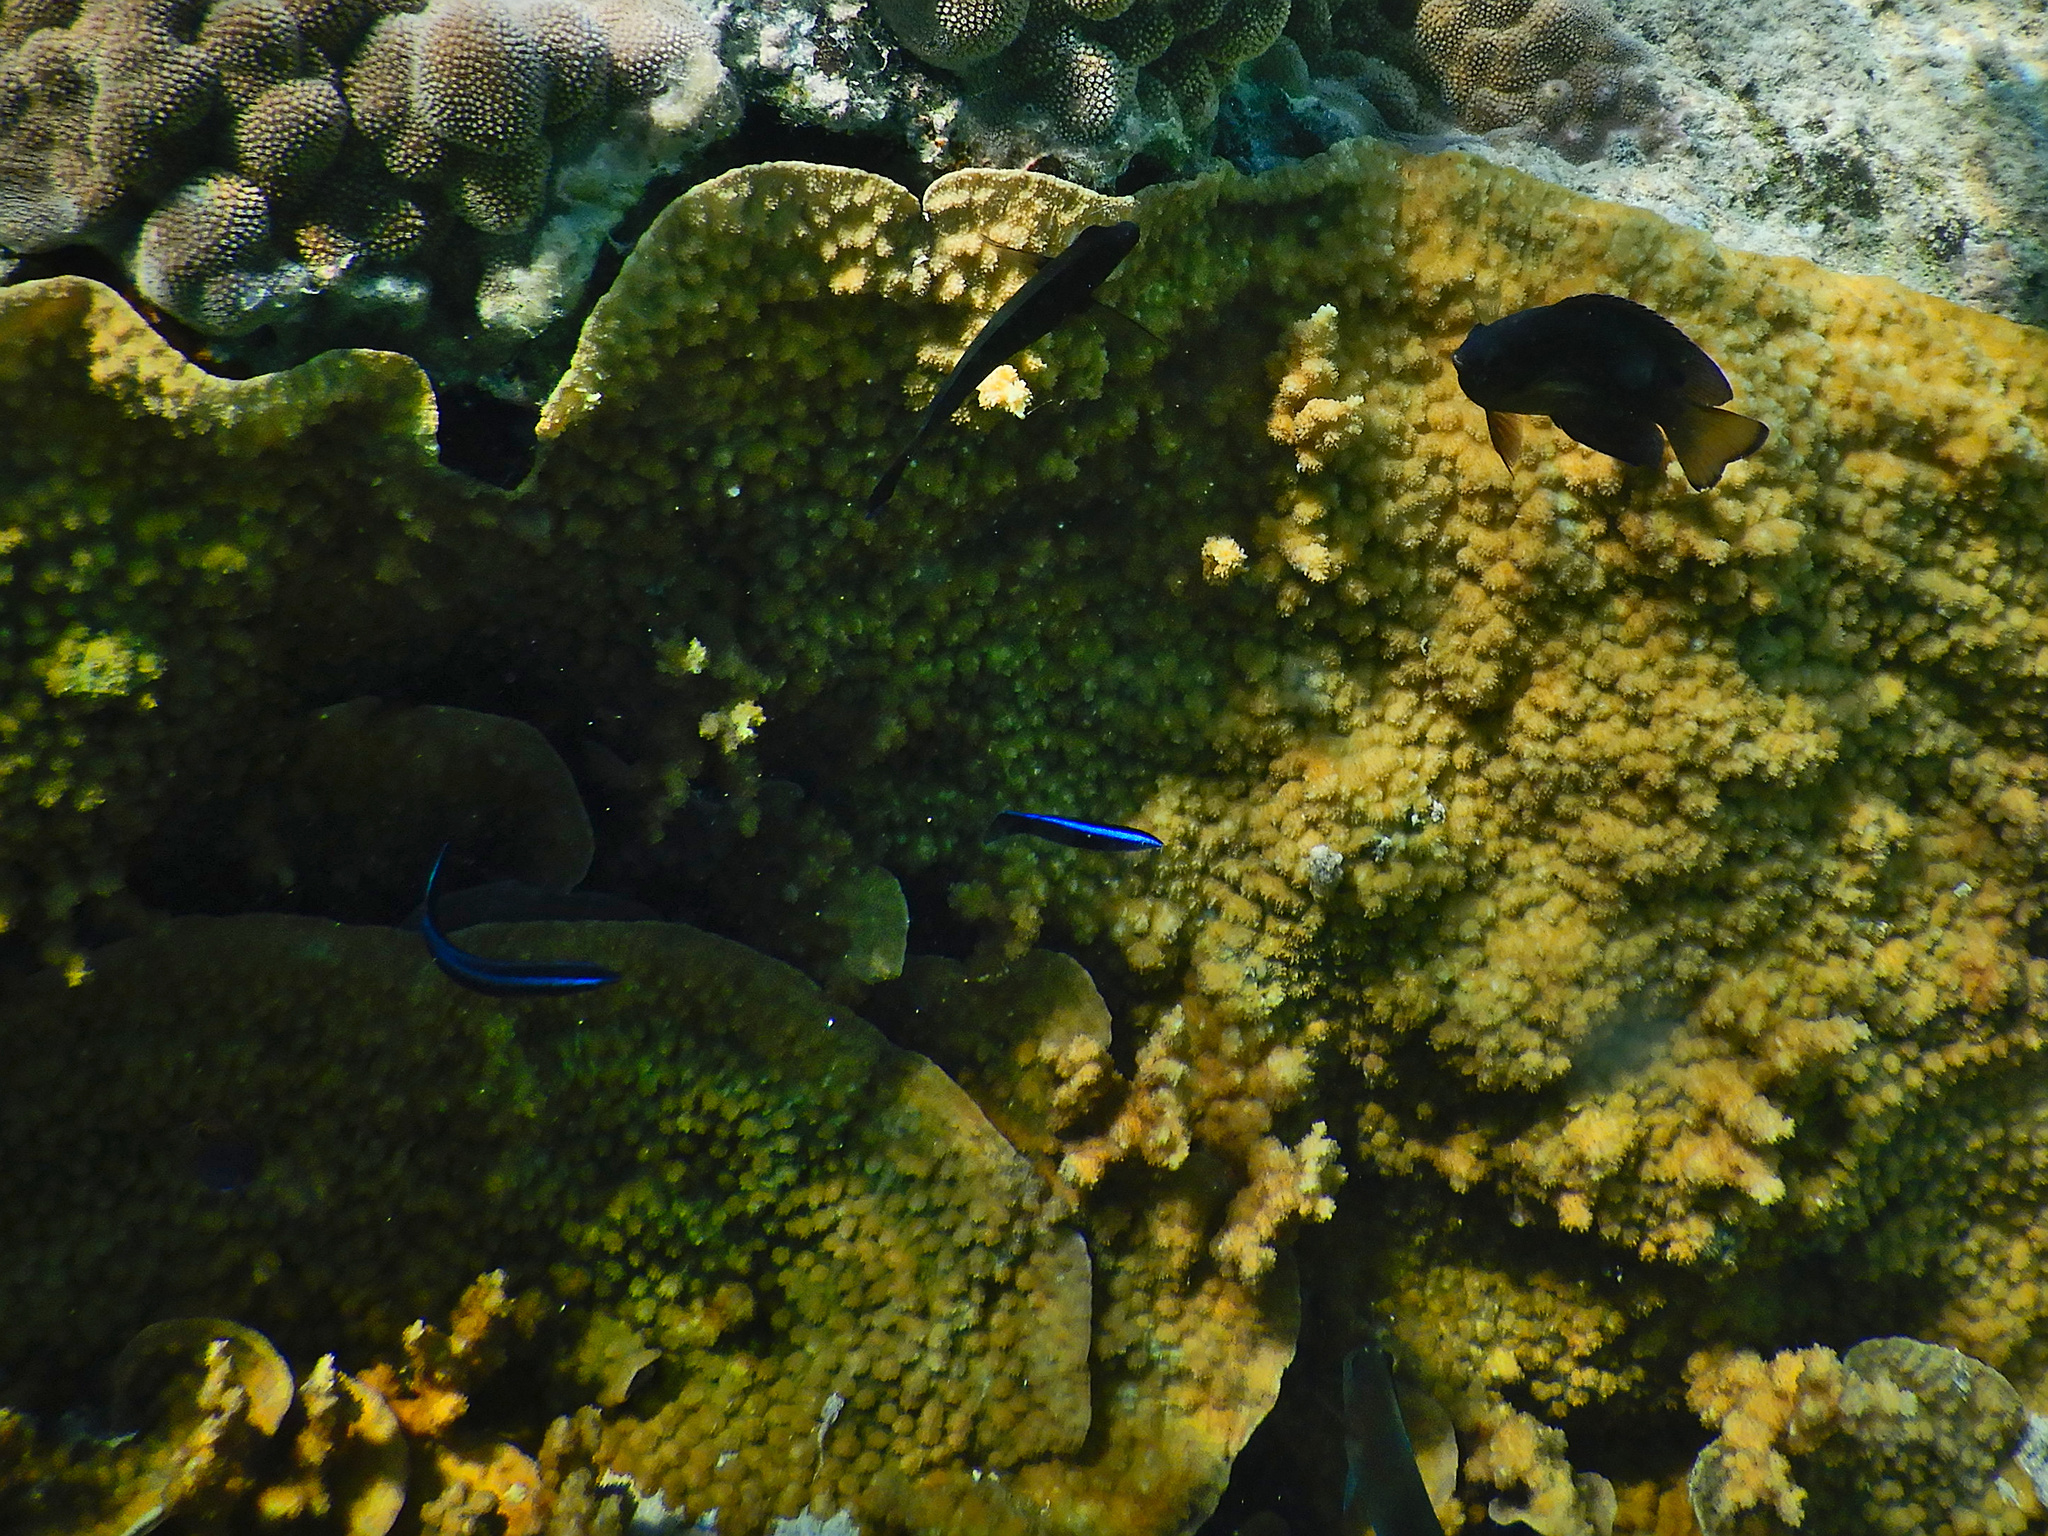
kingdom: Animalia
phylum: Chordata
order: Perciformes
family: Labridae
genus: Labroides
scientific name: Labroides dimidiatus
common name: Blue diesel wrasse
